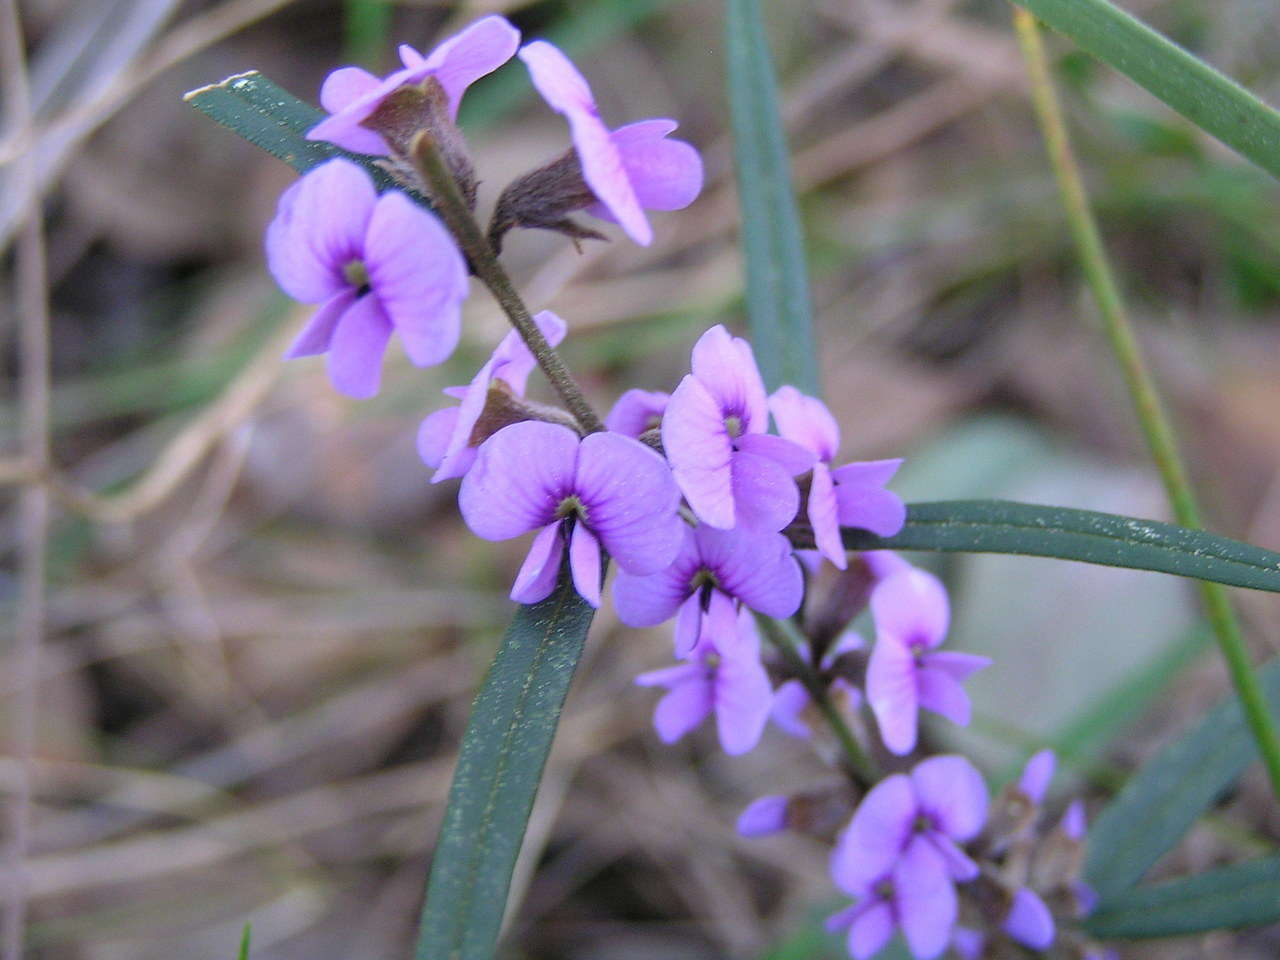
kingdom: Plantae
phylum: Tracheophyta
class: Magnoliopsida
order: Fabales
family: Fabaceae
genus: Hovea
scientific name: Hovea heterophylla
